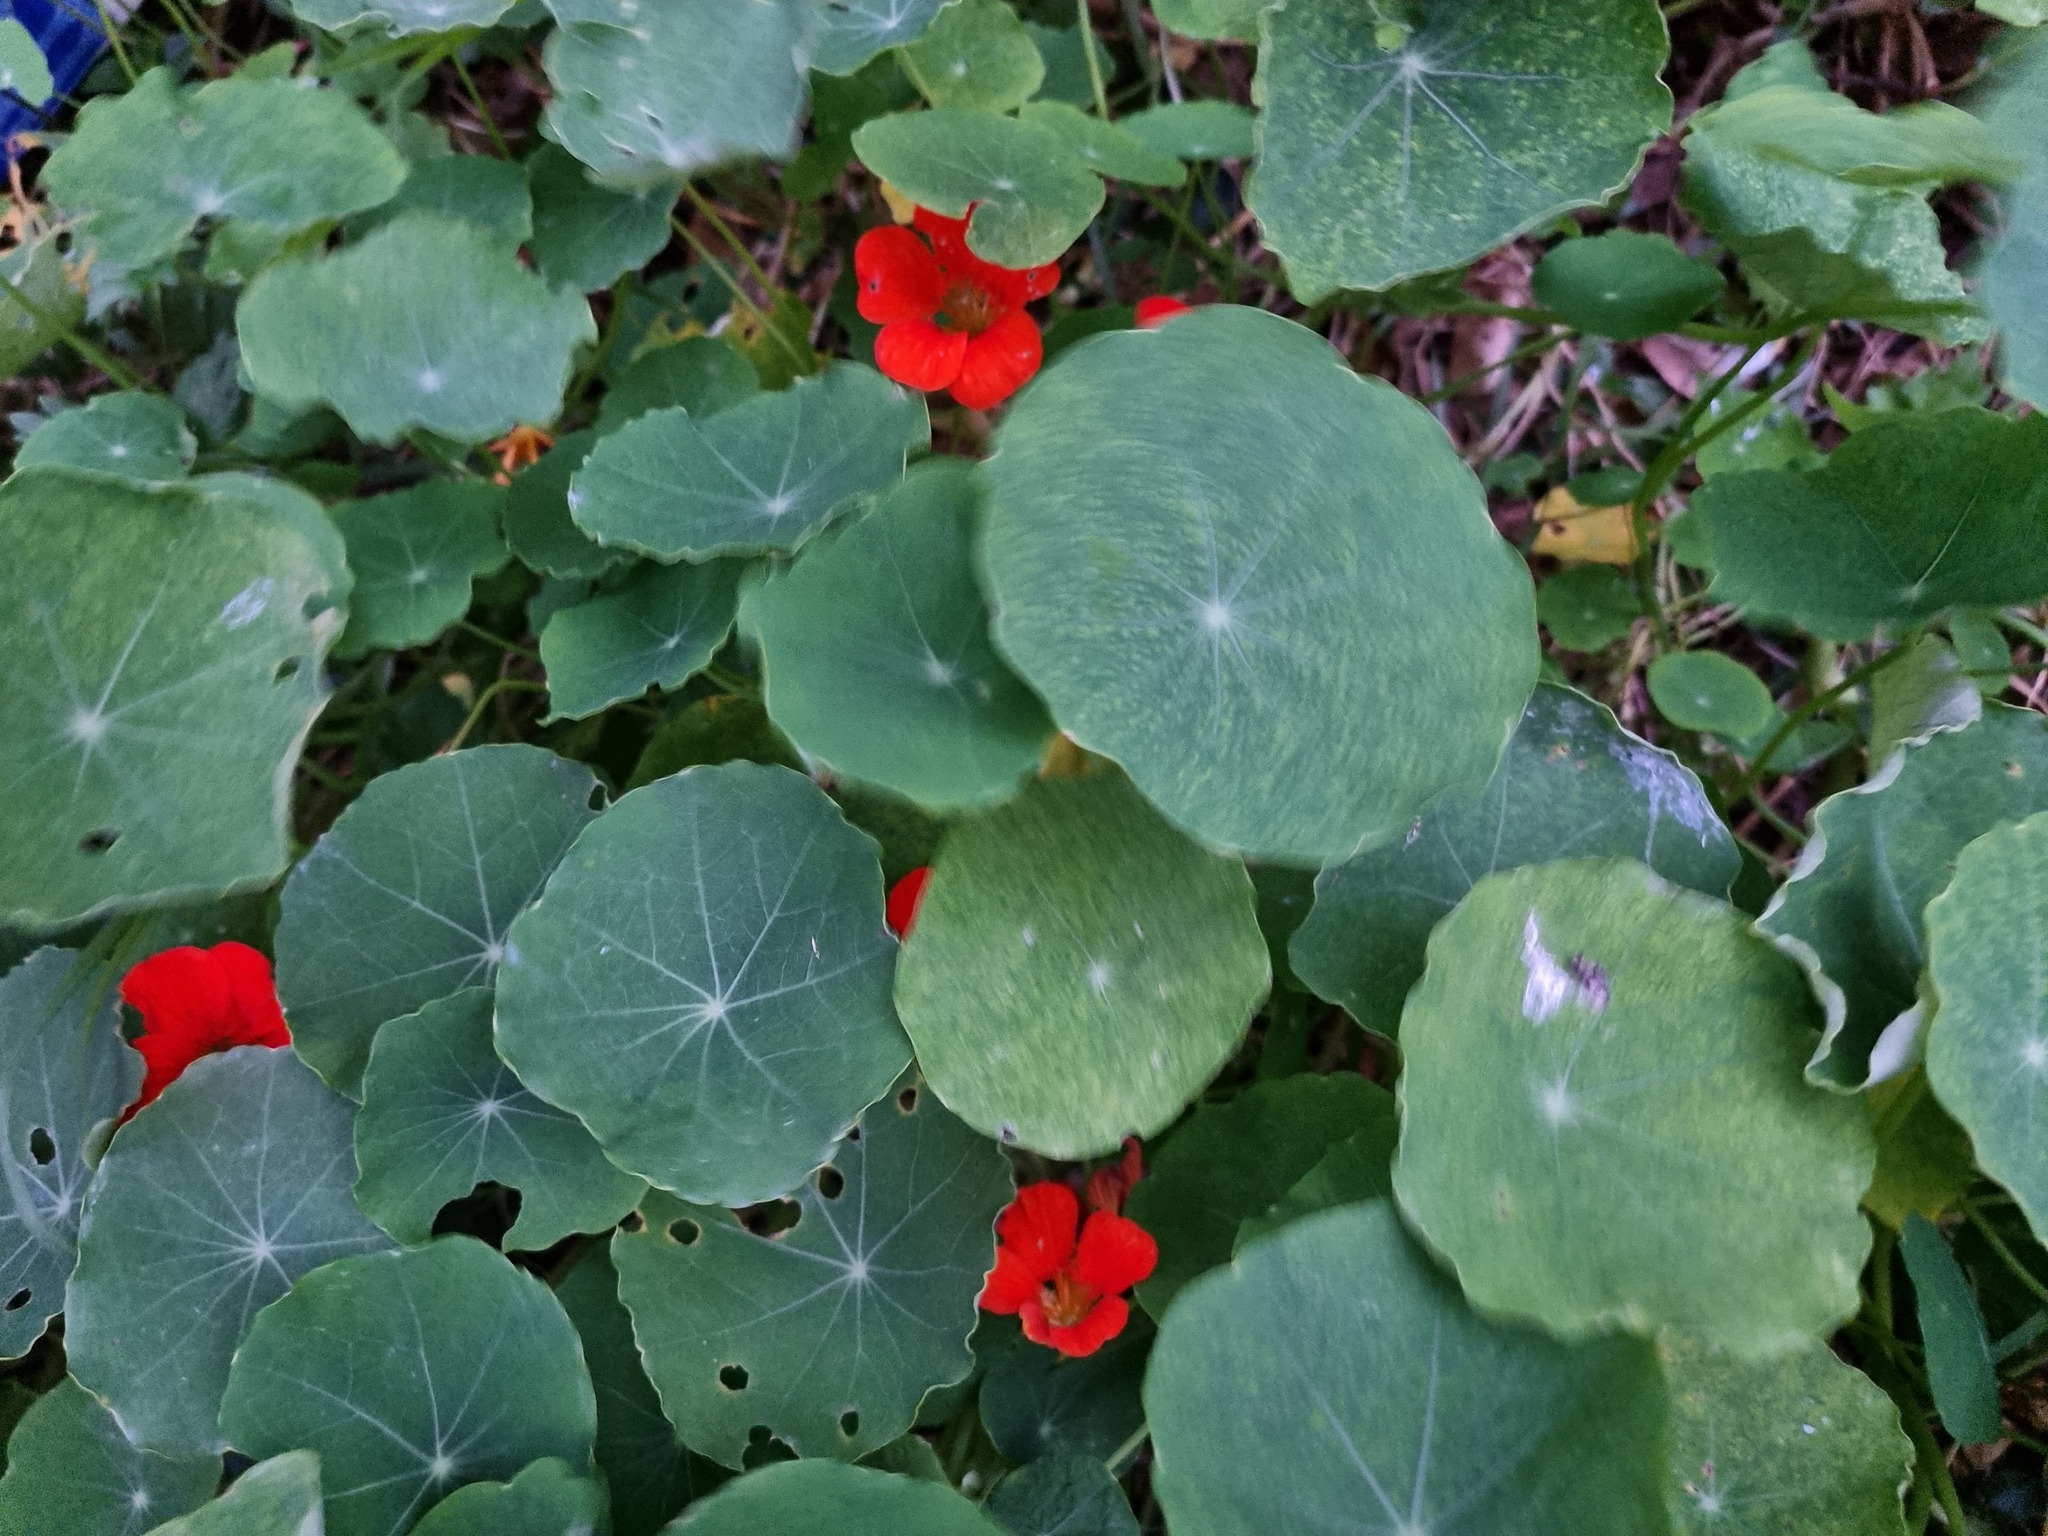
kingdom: Plantae
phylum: Tracheophyta
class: Magnoliopsida
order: Brassicales
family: Tropaeolaceae
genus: Tropaeolum
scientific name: Tropaeolum majus
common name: Nasturtium
